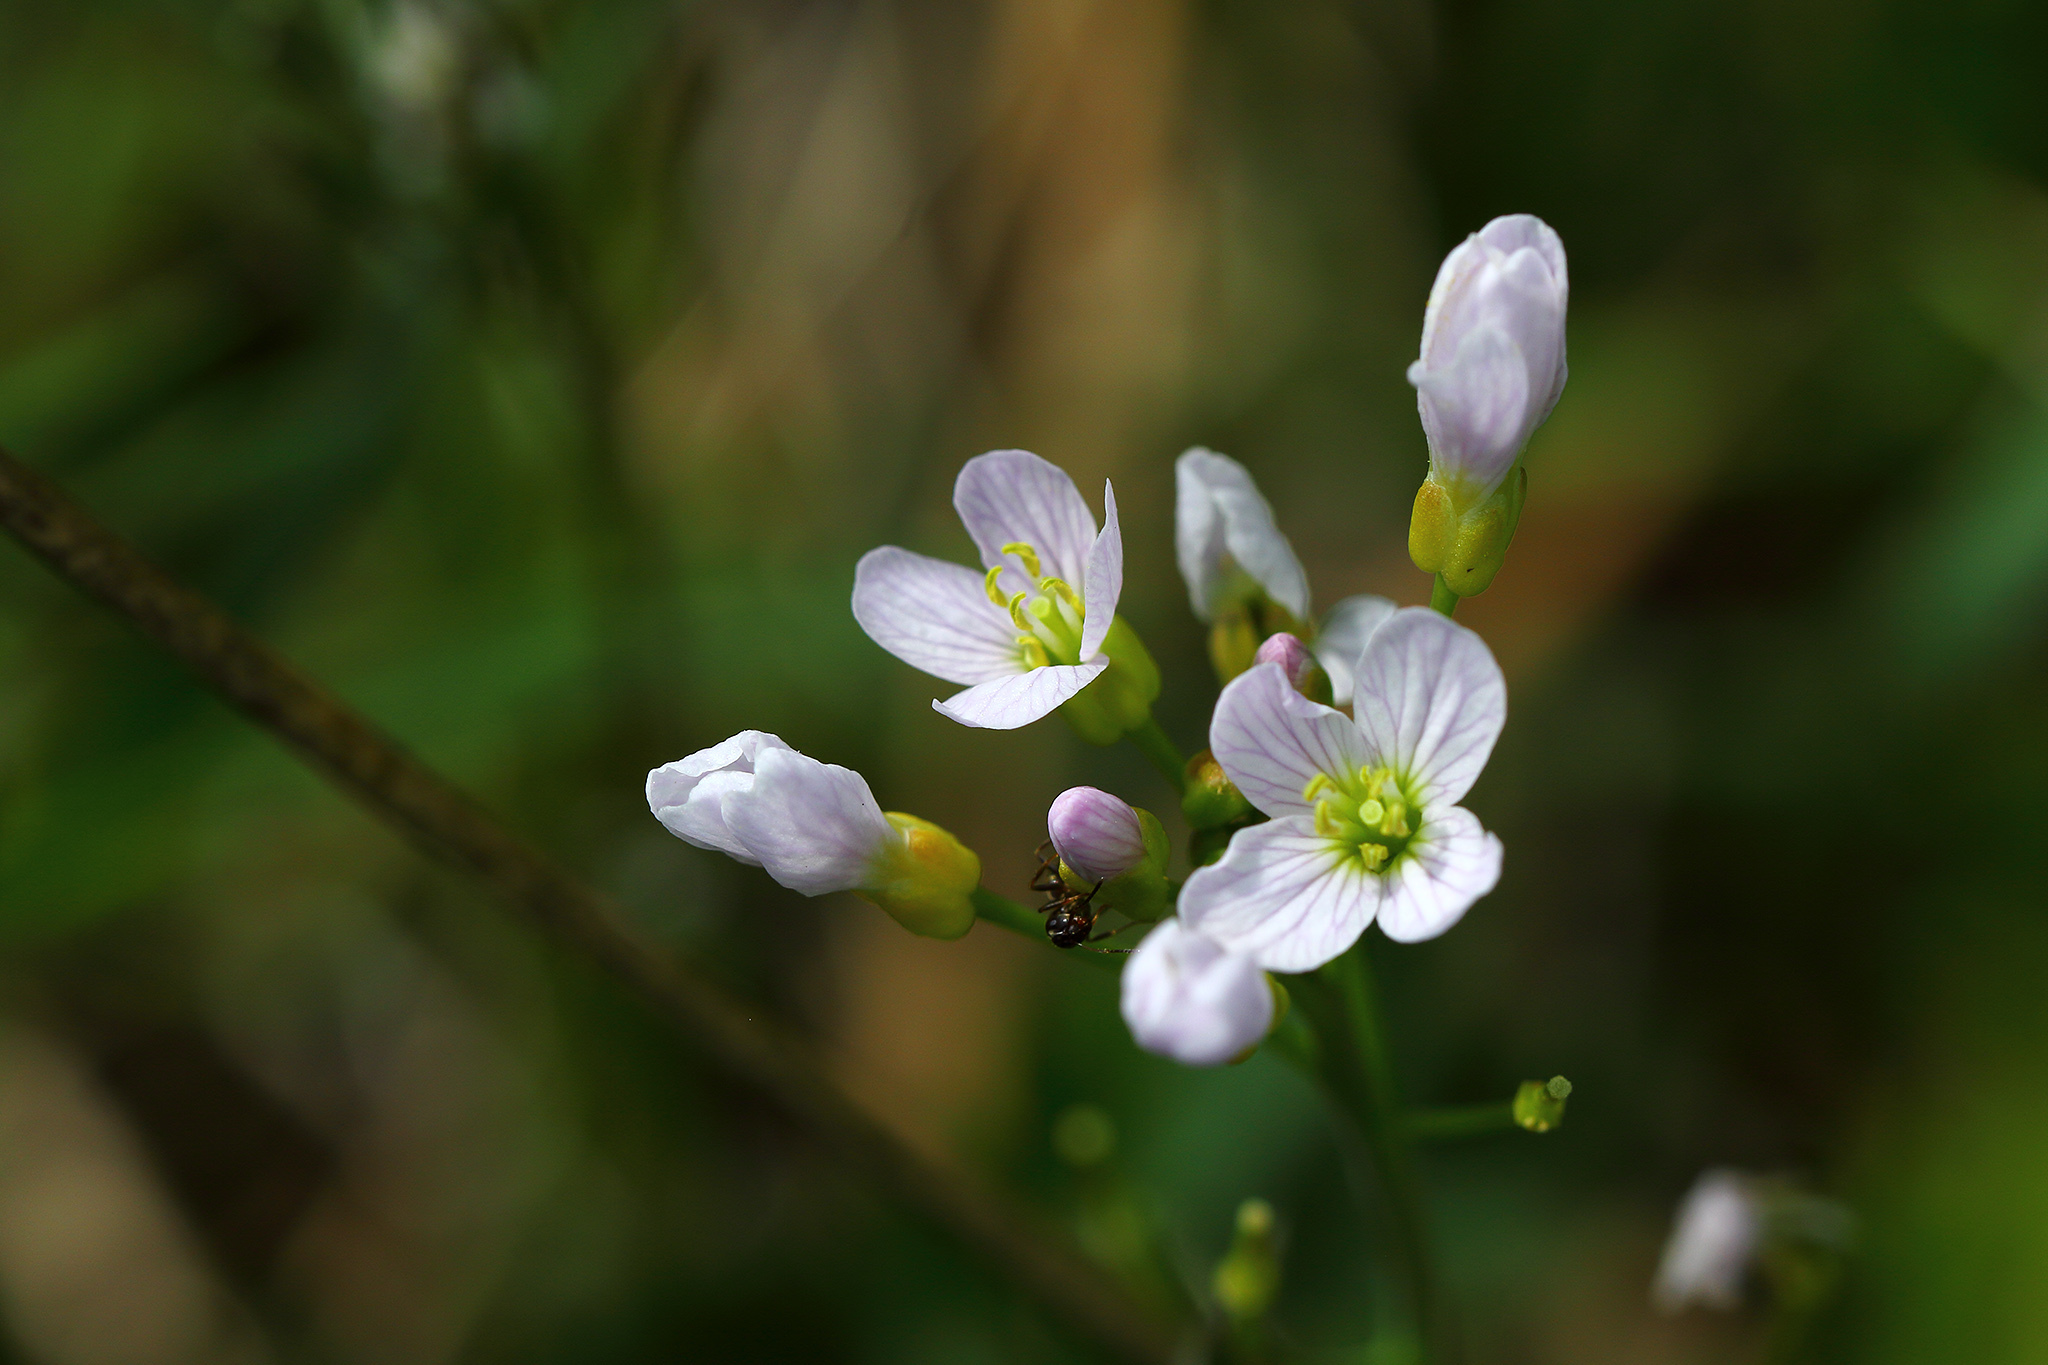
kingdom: Plantae
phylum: Tracheophyta
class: Magnoliopsida
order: Brassicales
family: Brassicaceae
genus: Cardamine
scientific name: Cardamine pratensis
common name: Cuckoo flower
